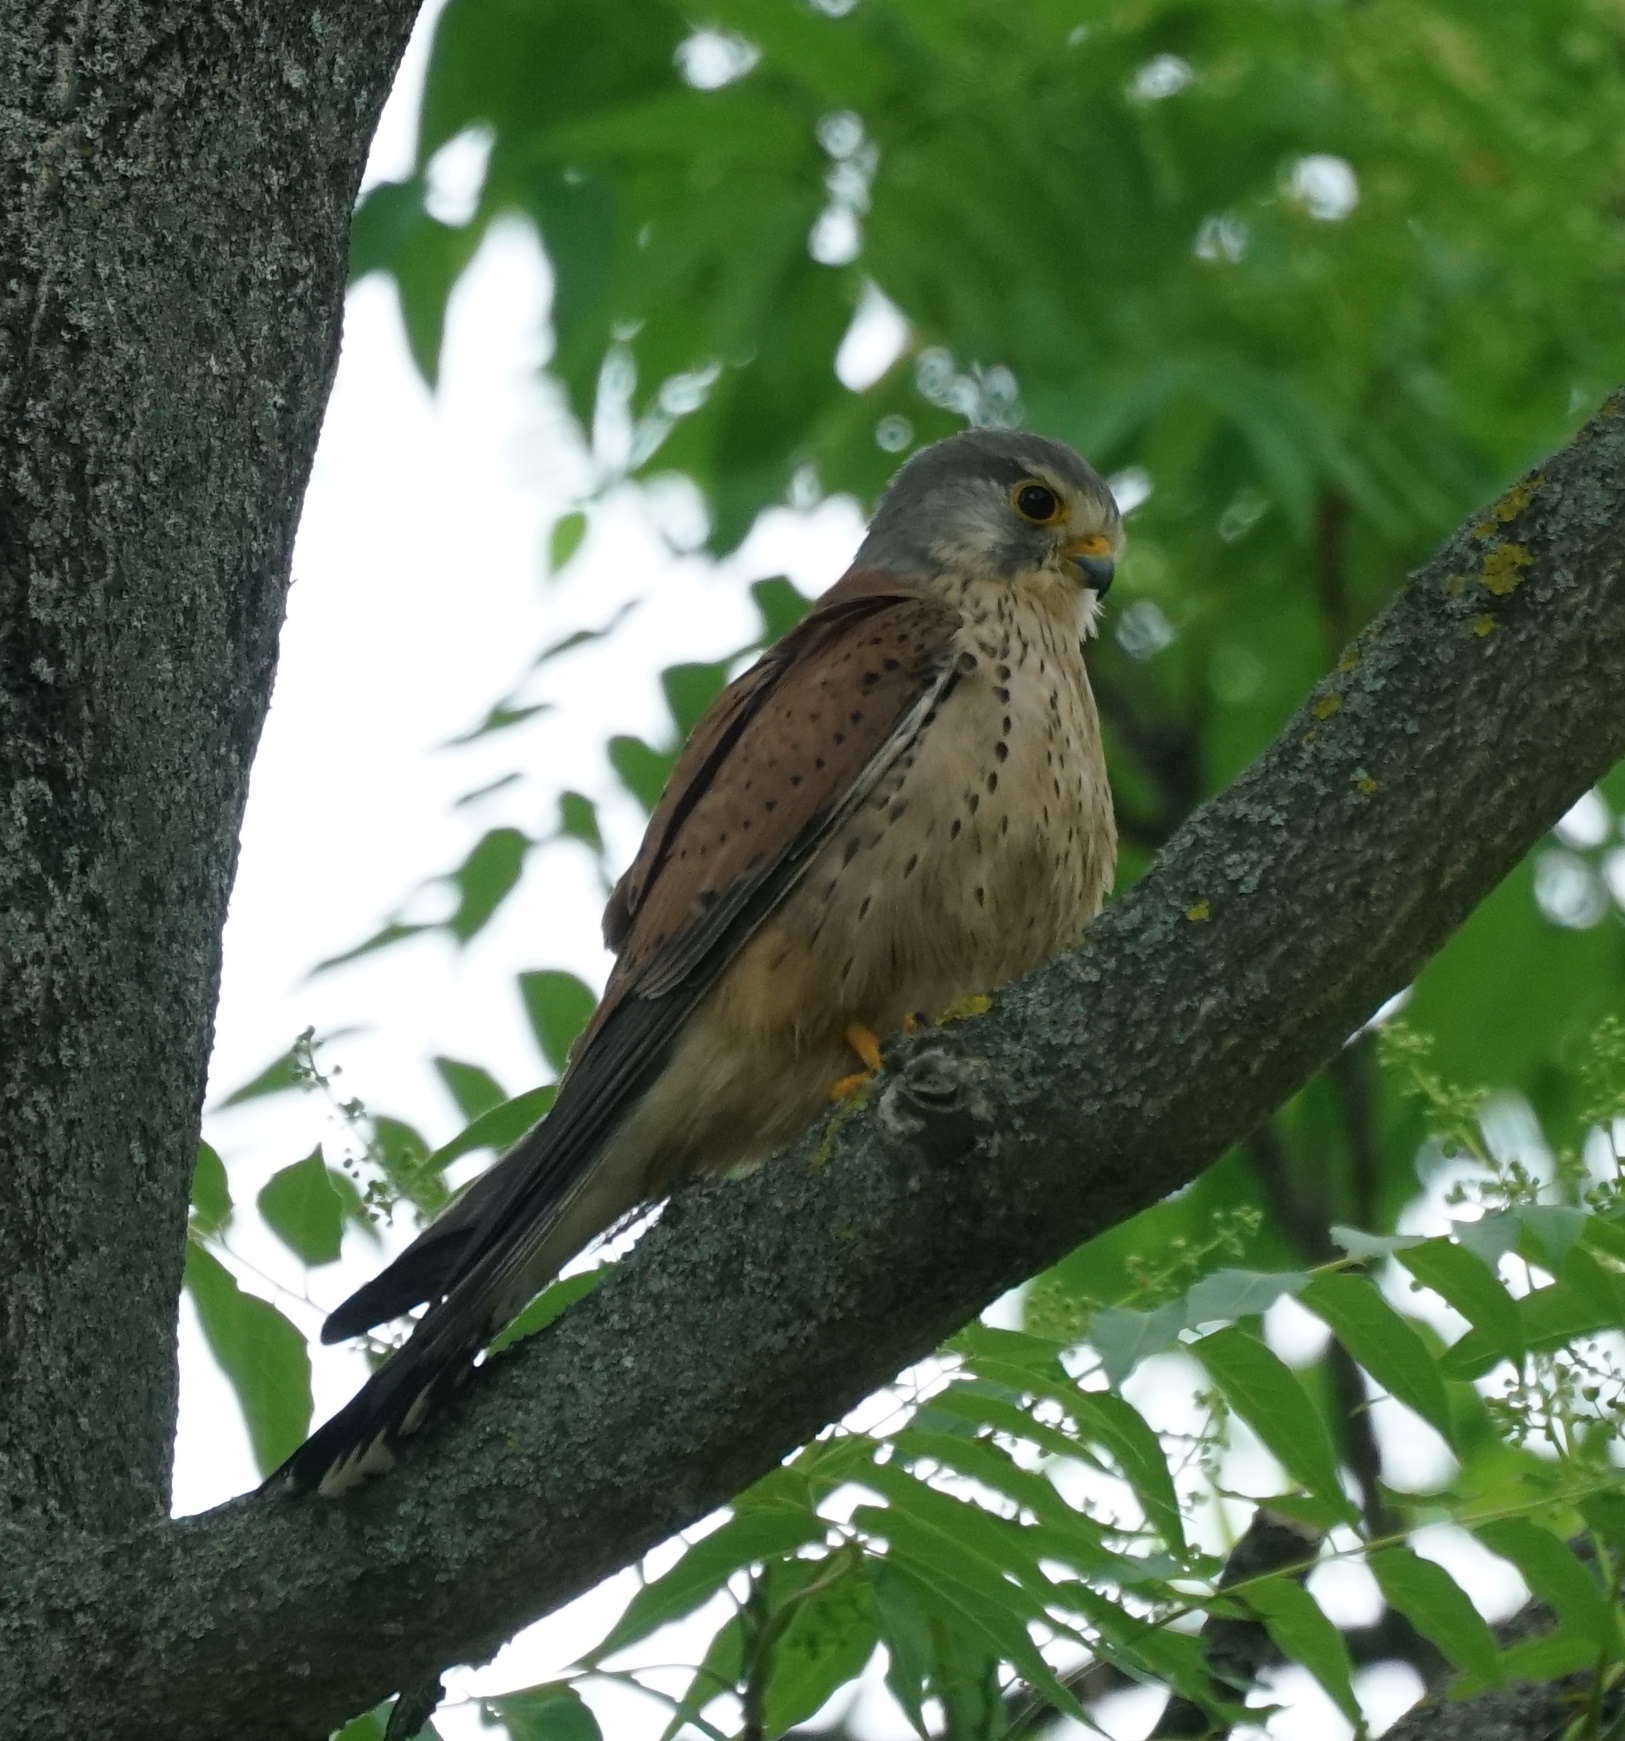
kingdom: Animalia
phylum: Chordata
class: Aves
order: Falconiformes
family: Falconidae
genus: Falco
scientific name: Falco tinnunculus
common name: Common kestrel
